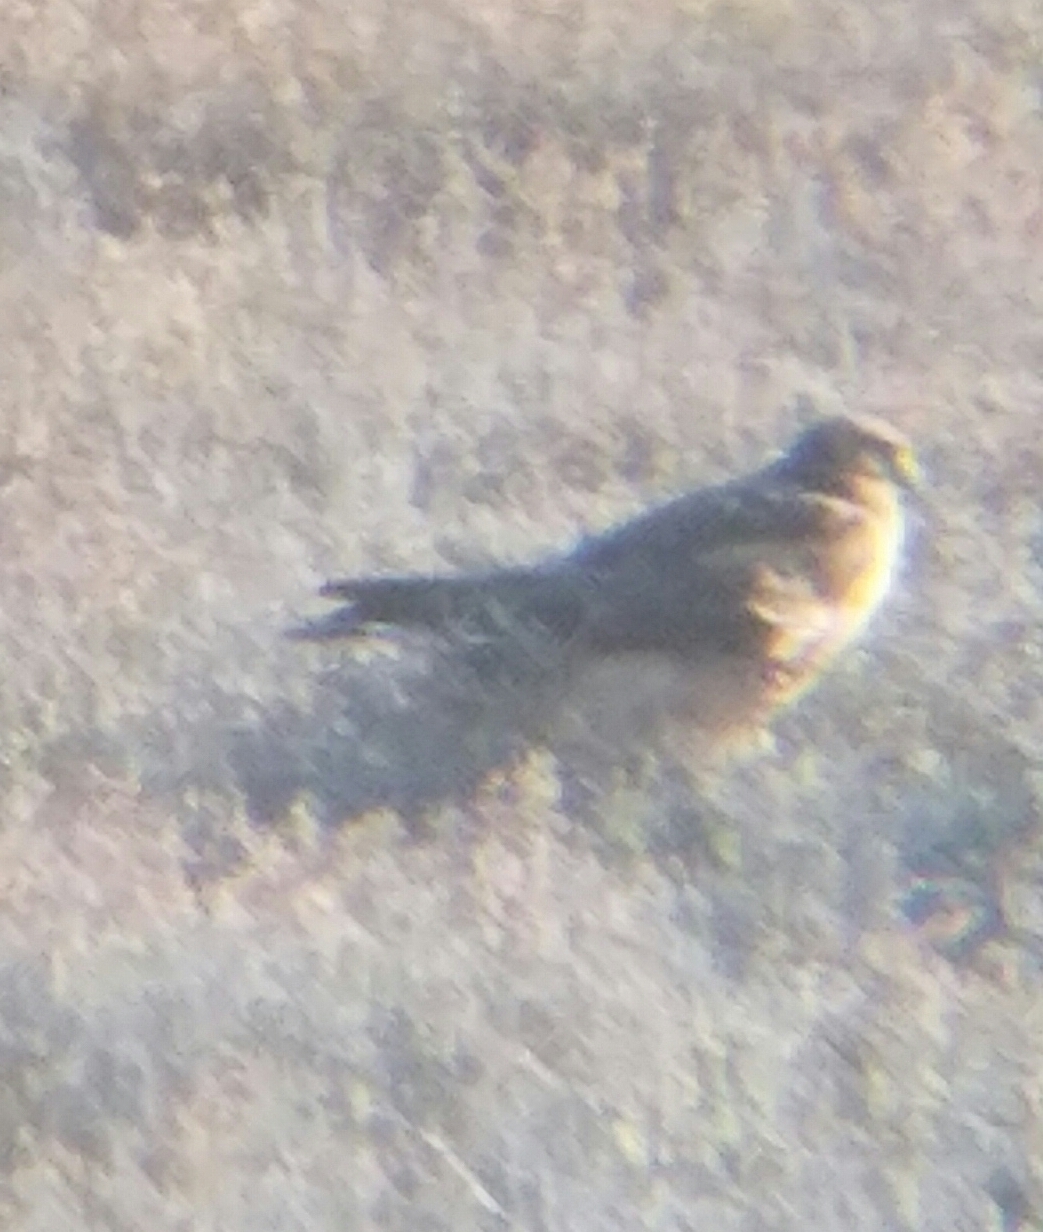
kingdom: Animalia
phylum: Chordata
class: Aves
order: Accipitriformes
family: Accipitridae
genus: Circus
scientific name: Circus cyaneus
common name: Hen harrier
